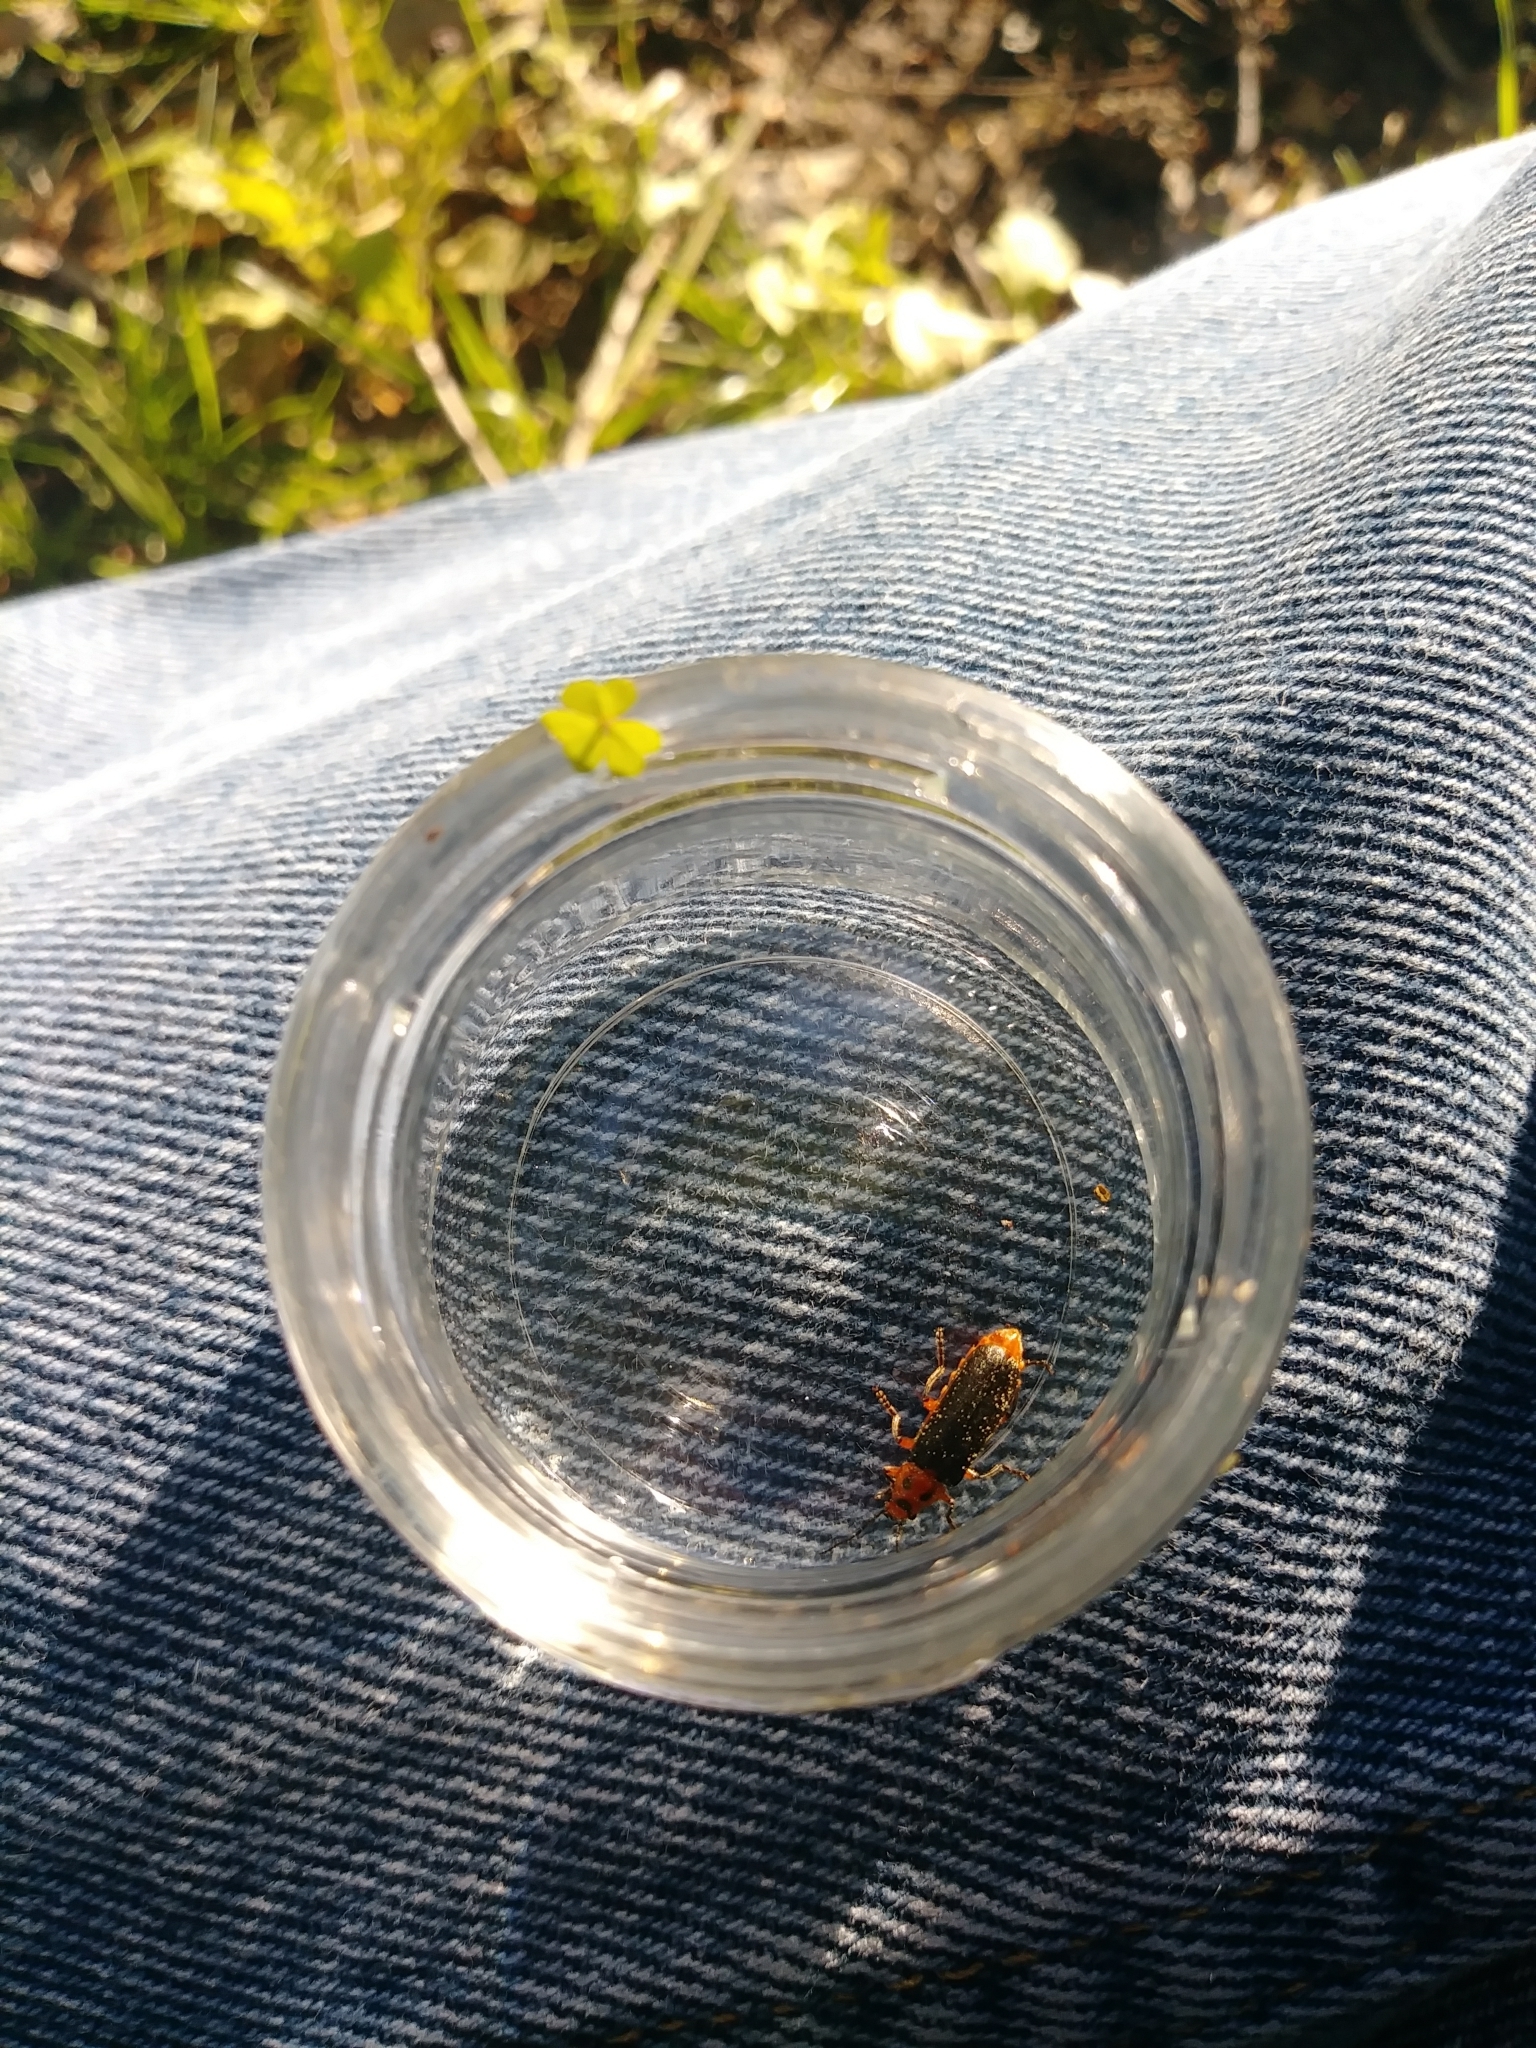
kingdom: Animalia
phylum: Arthropoda
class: Insecta
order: Coleoptera
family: Cantharidae
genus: Atalantycha
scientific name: Atalantycha bilineata
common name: Two-lined leatherwing
